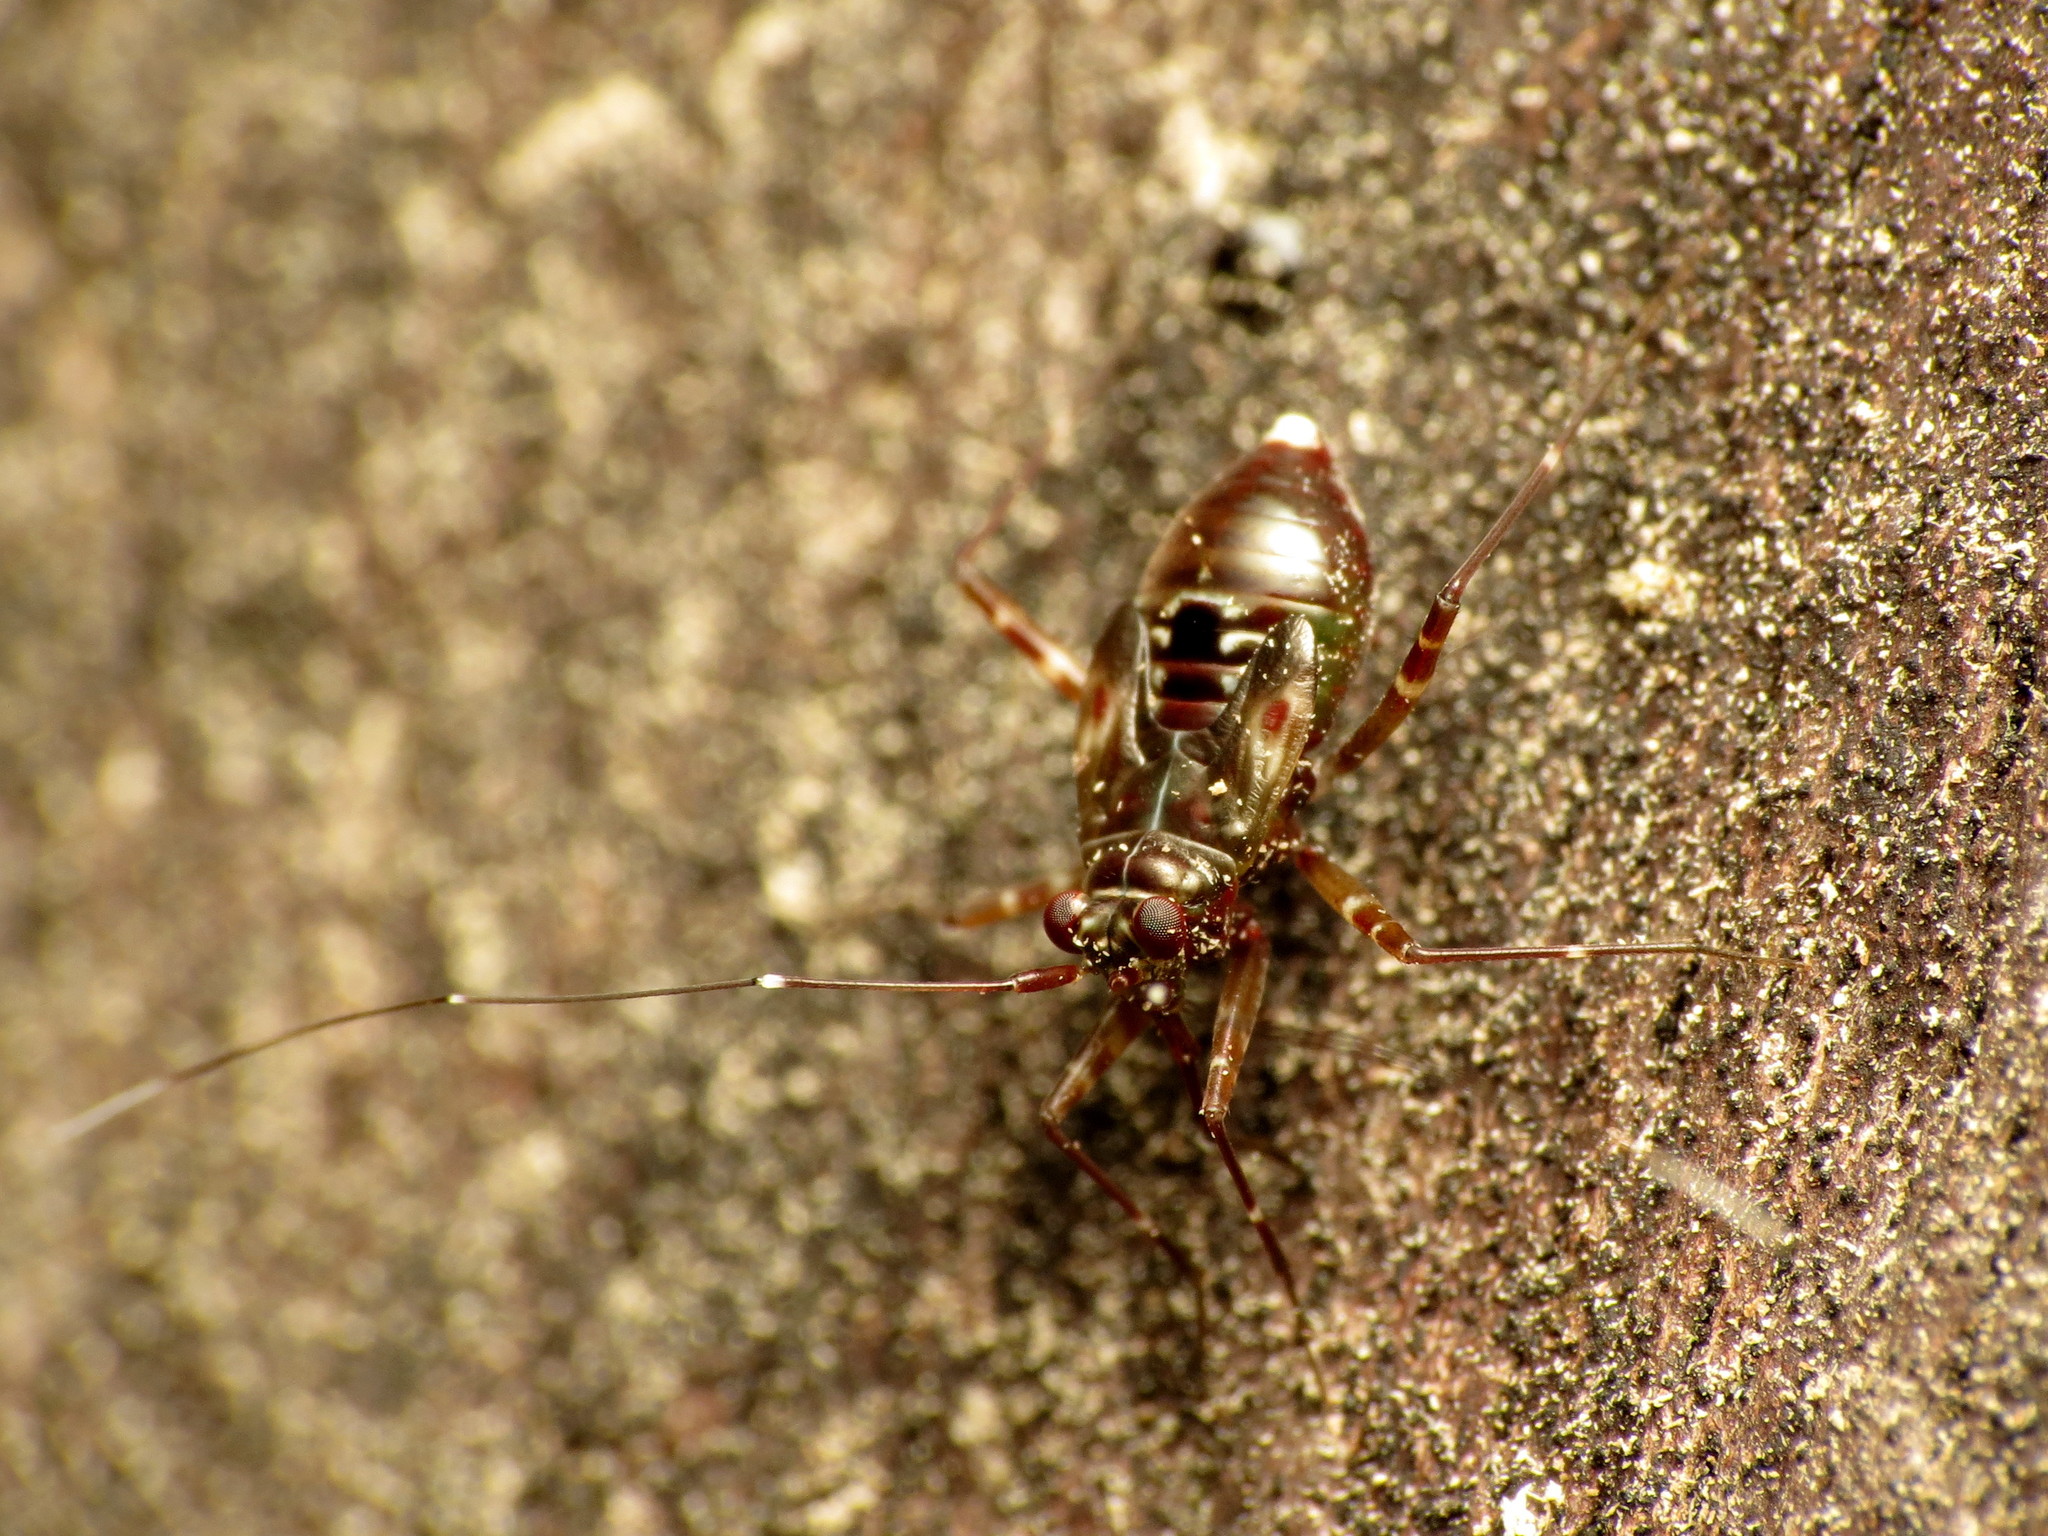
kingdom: Animalia
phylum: Arthropoda
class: Insecta
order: Hemiptera
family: Miridae
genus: Cylapus
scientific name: Cylapus tenuicornis
